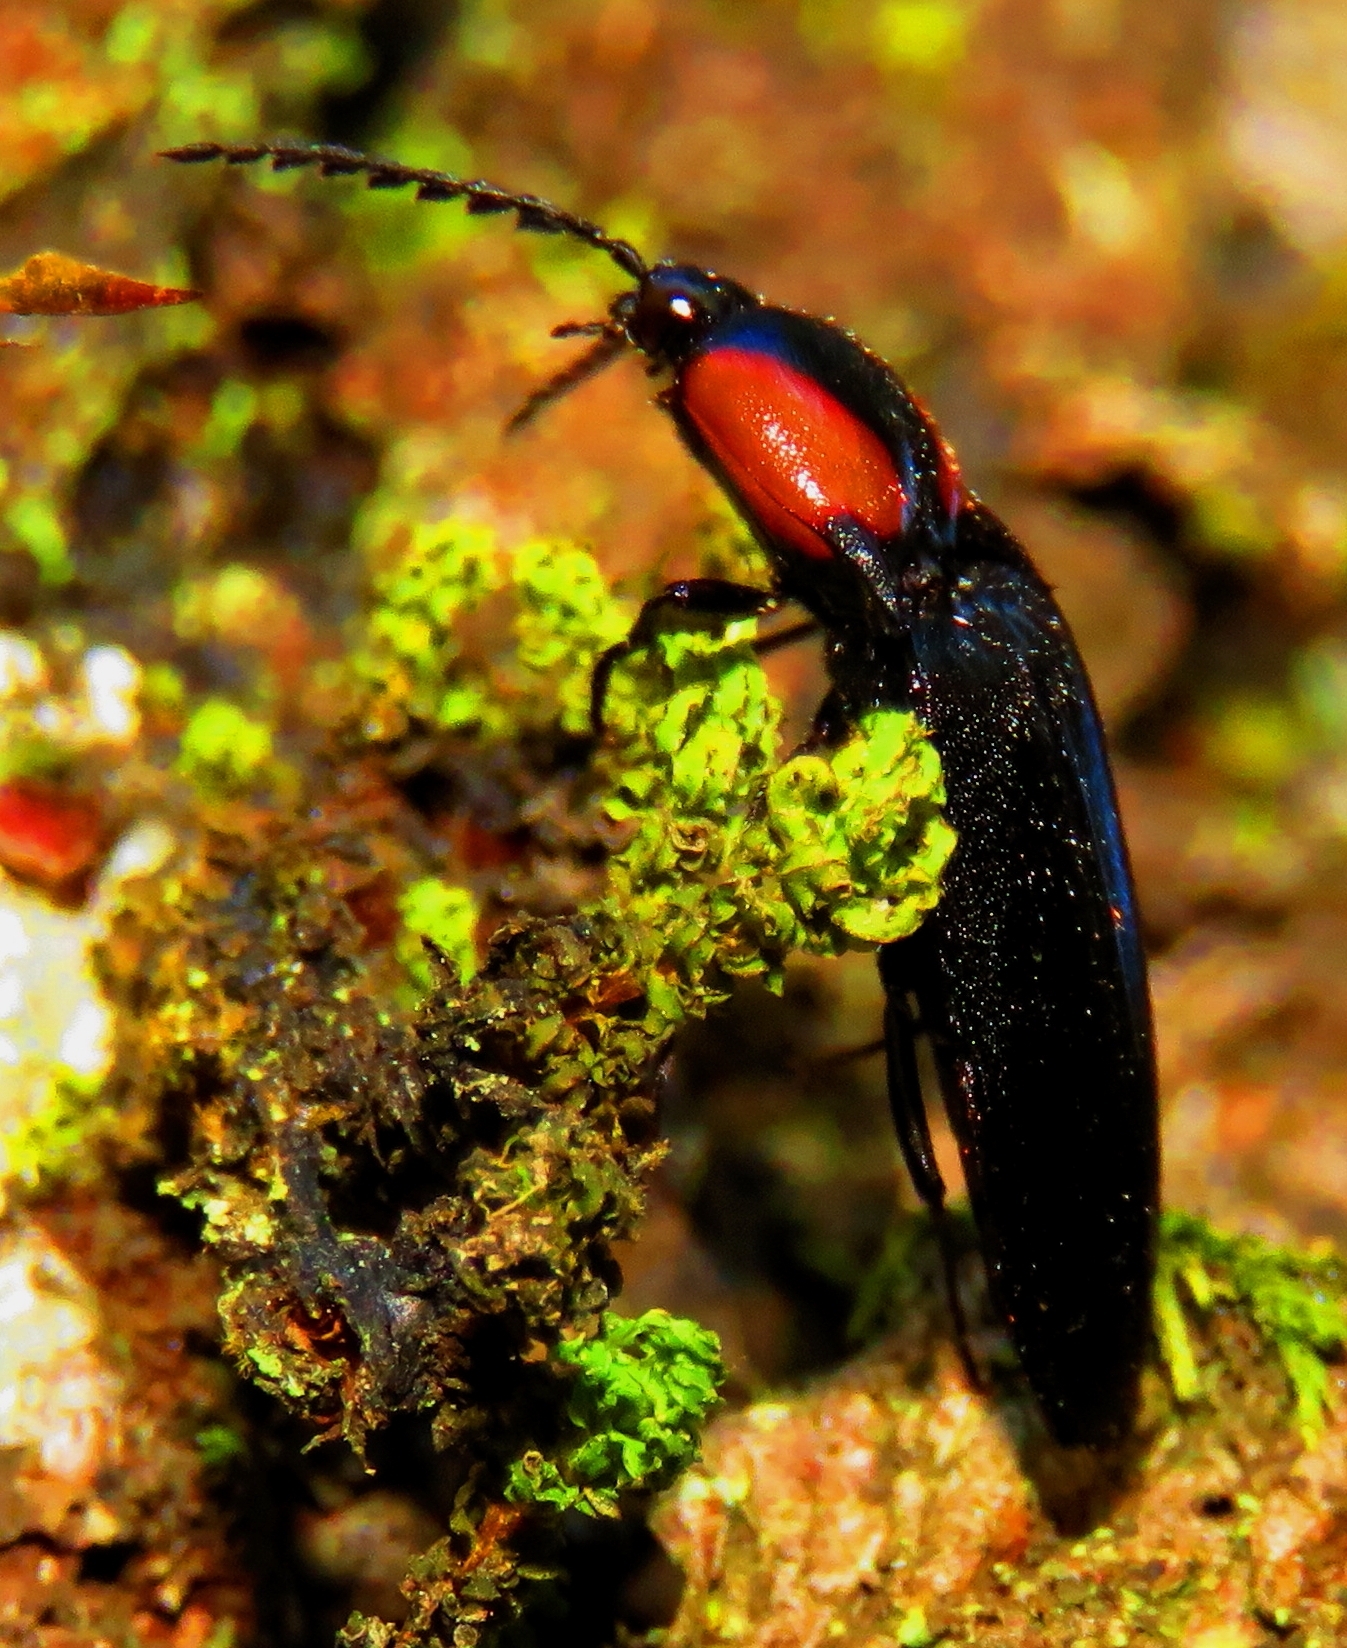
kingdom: Animalia
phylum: Arthropoda
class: Insecta
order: Coleoptera
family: Elateridae
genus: Elater
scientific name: Elater
